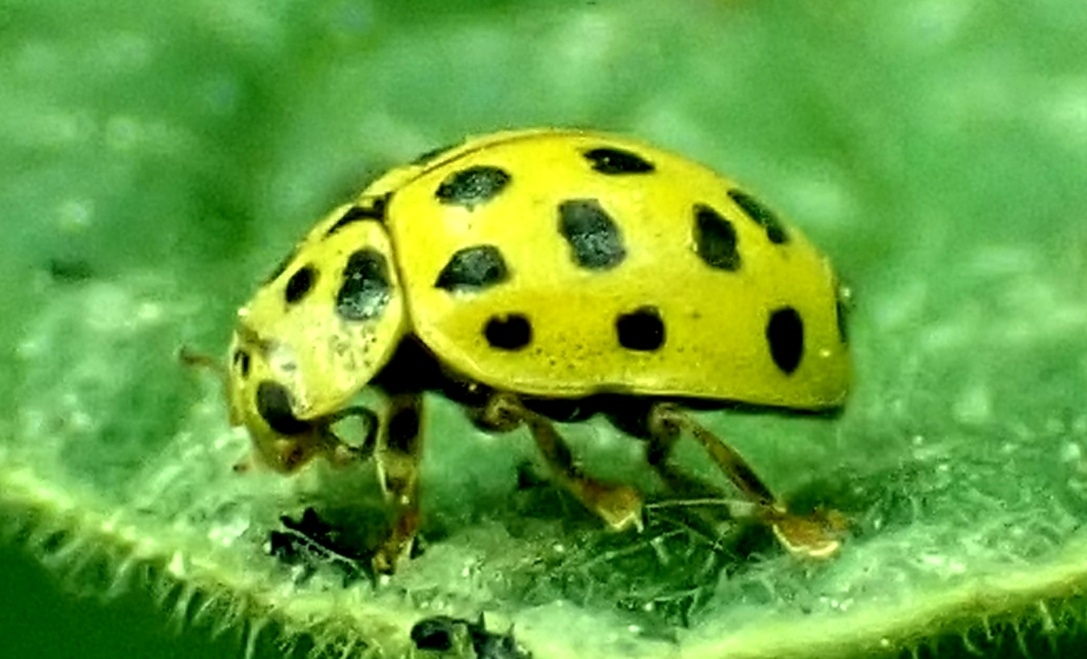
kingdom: Animalia
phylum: Arthropoda
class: Insecta
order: Coleoptera
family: Coccinellidae
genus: Psyllobora
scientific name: Psyllobora vigintiduopunctata
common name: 22-spot ladybird
